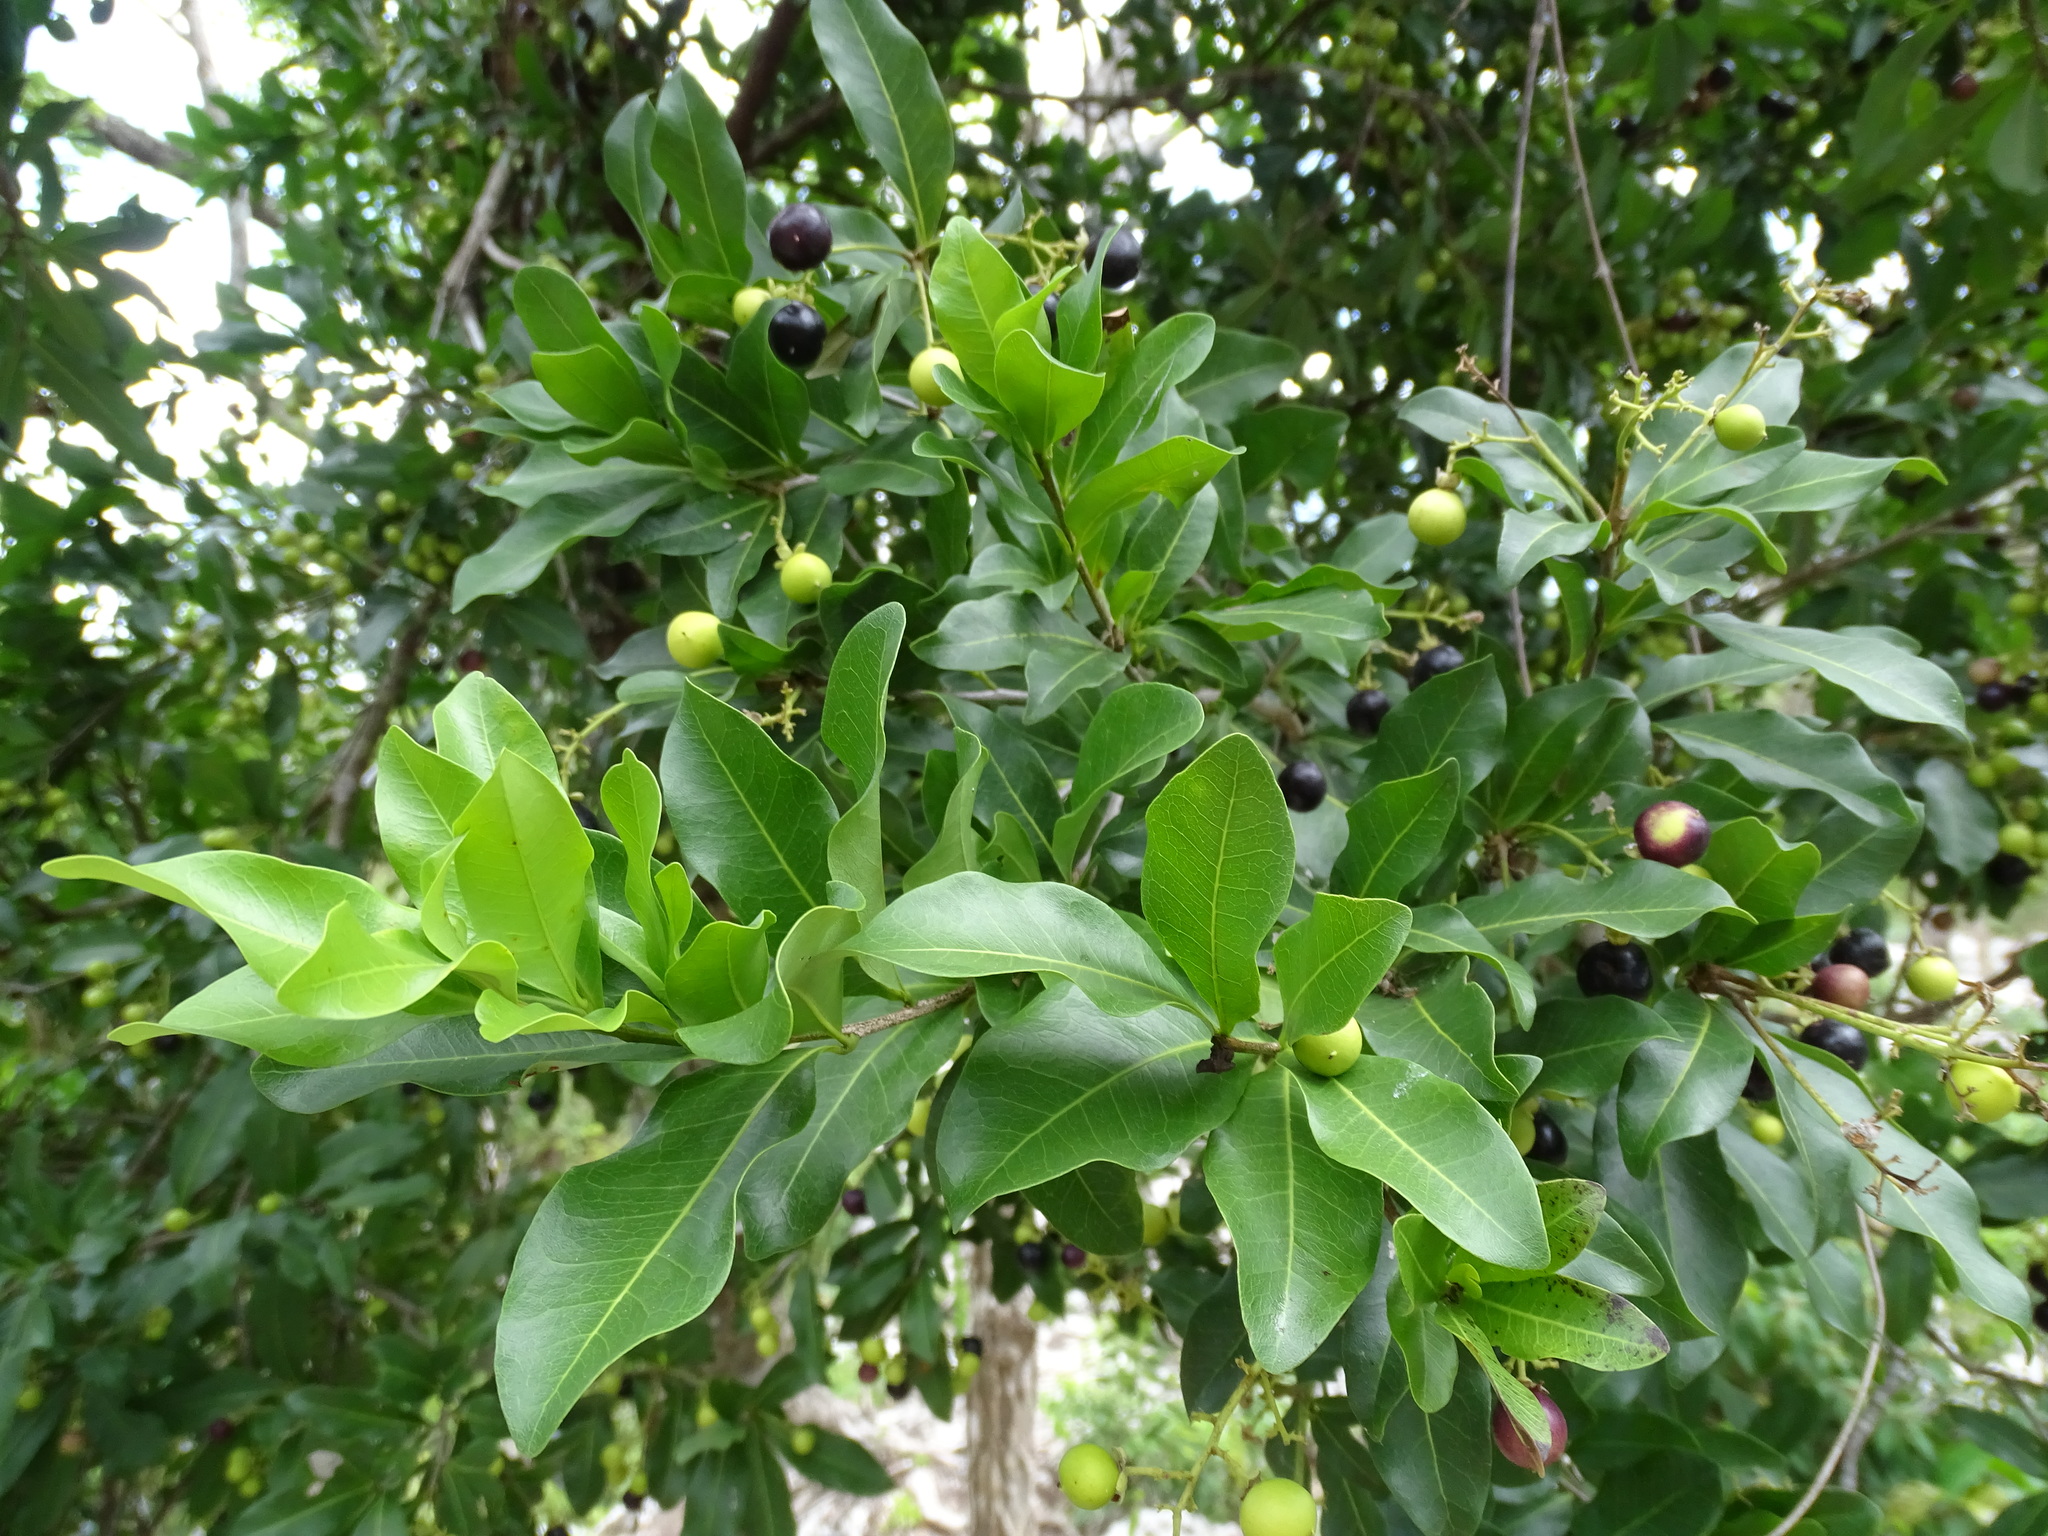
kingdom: Plantae
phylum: Tracheophyta
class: Magnoliopsida
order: Sapindales
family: Sapindaceae
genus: Exothea
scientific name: Exothea paniculata
